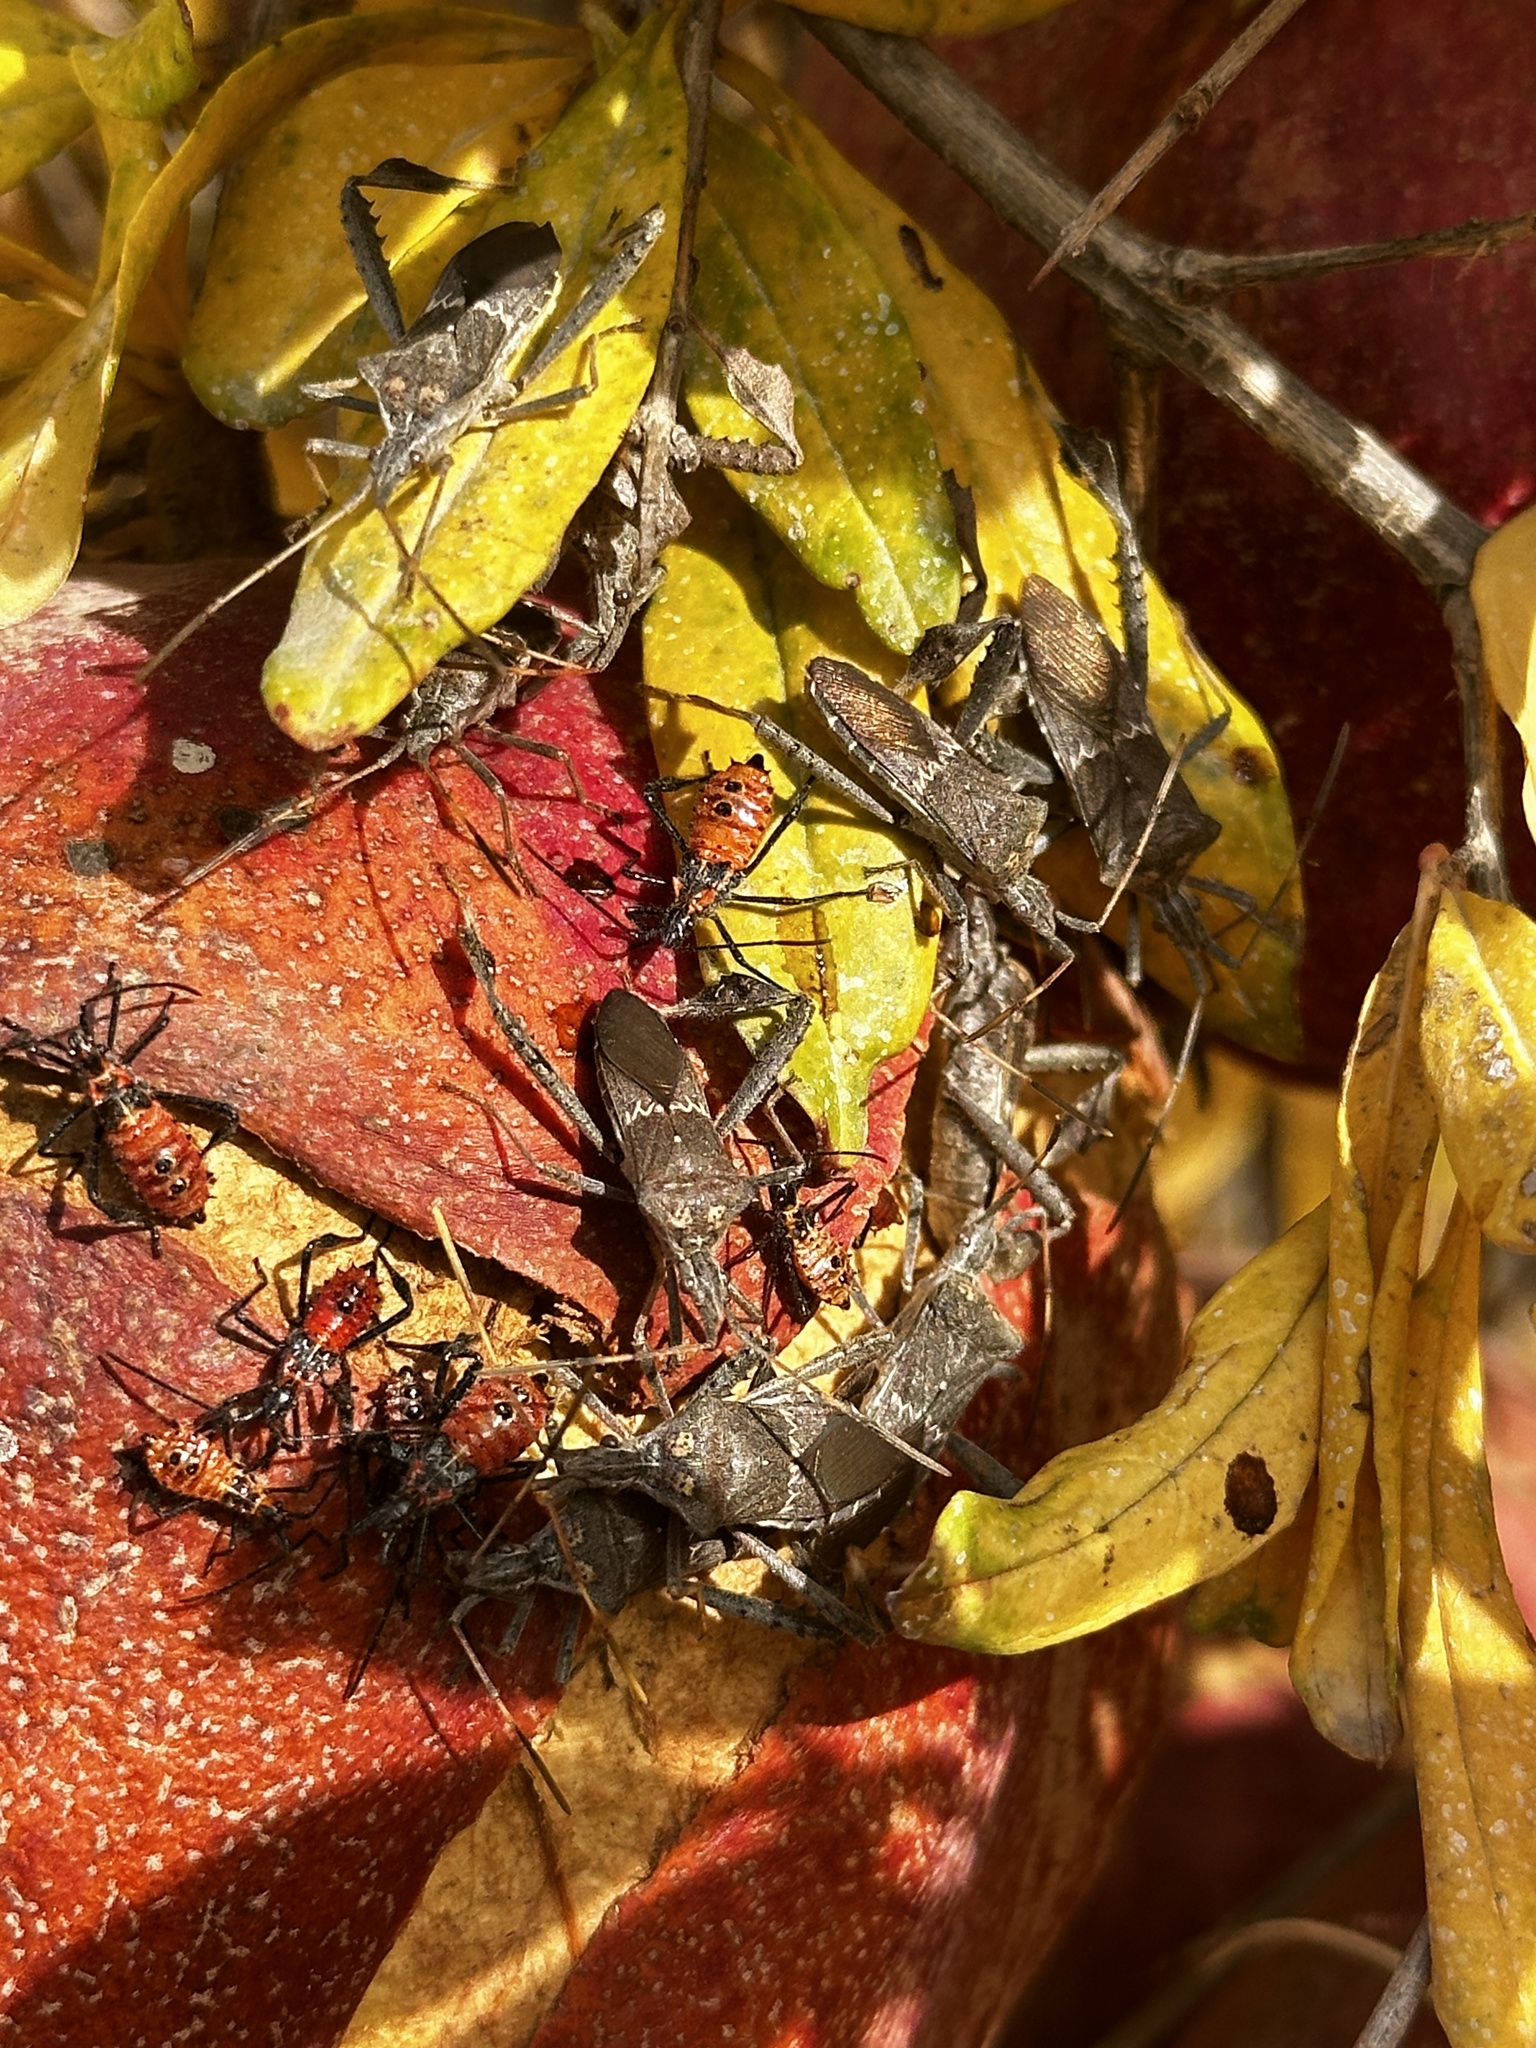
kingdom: Animalia
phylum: Arthropoda
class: Insecta
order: Hemiptera
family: Coreidae
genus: Leptoglossus
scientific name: Leptoglossus zonatus
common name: Large-legged bug
